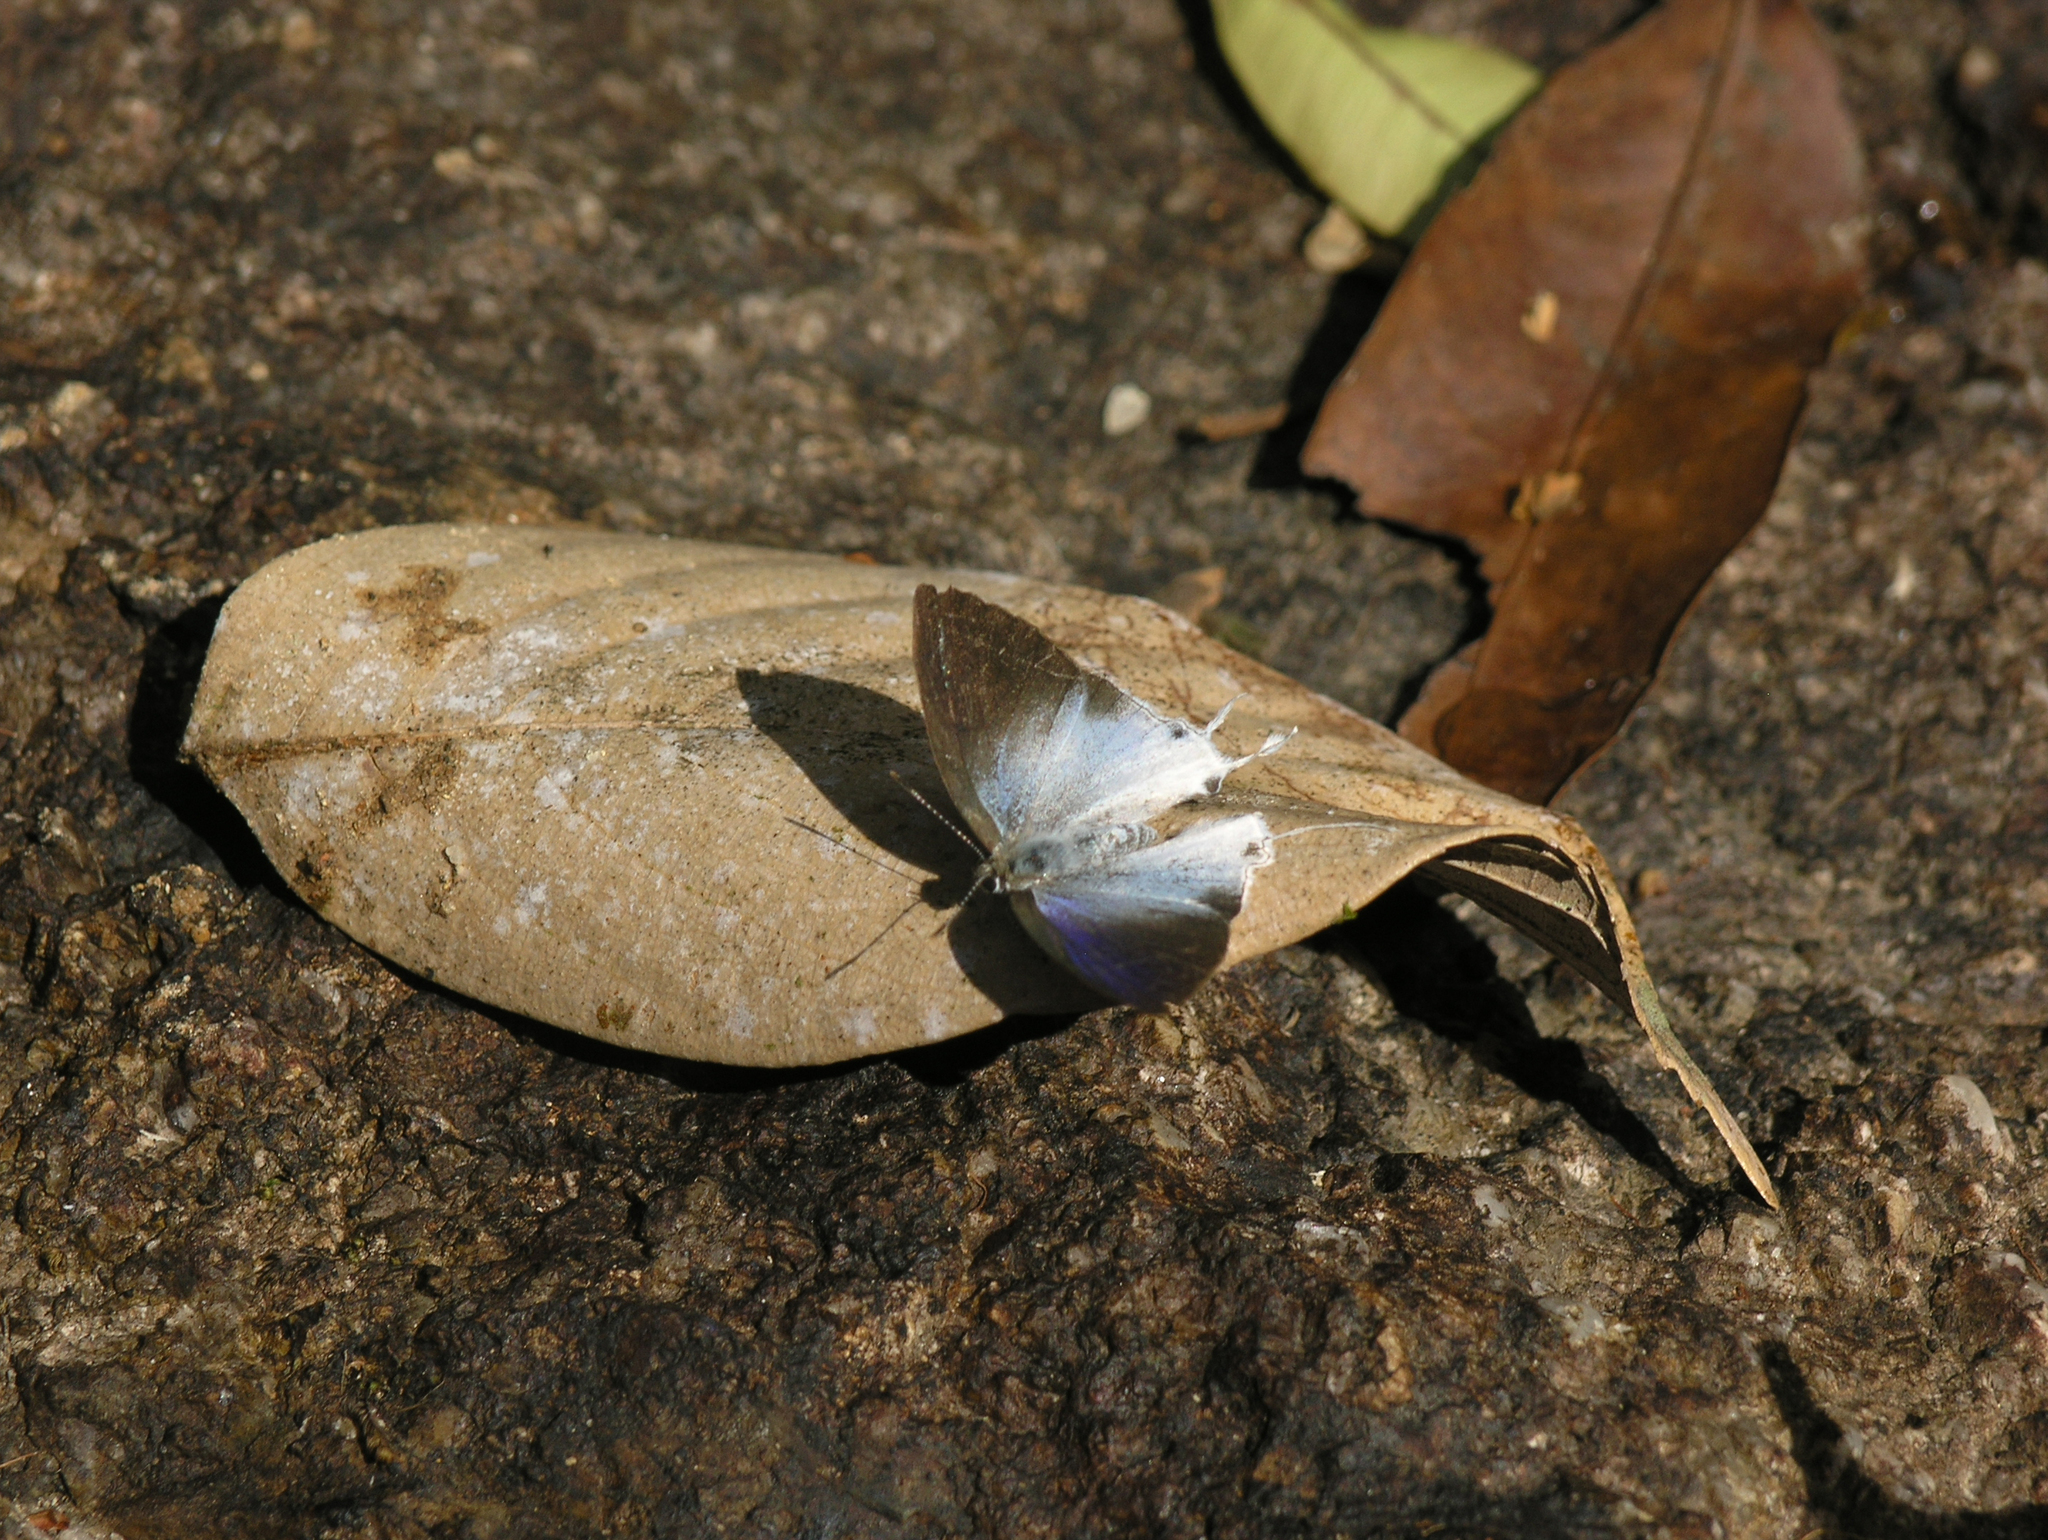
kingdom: Animalia
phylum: Arthropoda
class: Insecta
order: Lepidoptera
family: Lycaenidae
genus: Zeltus
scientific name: Zeltus amasa
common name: Fluffy tit
